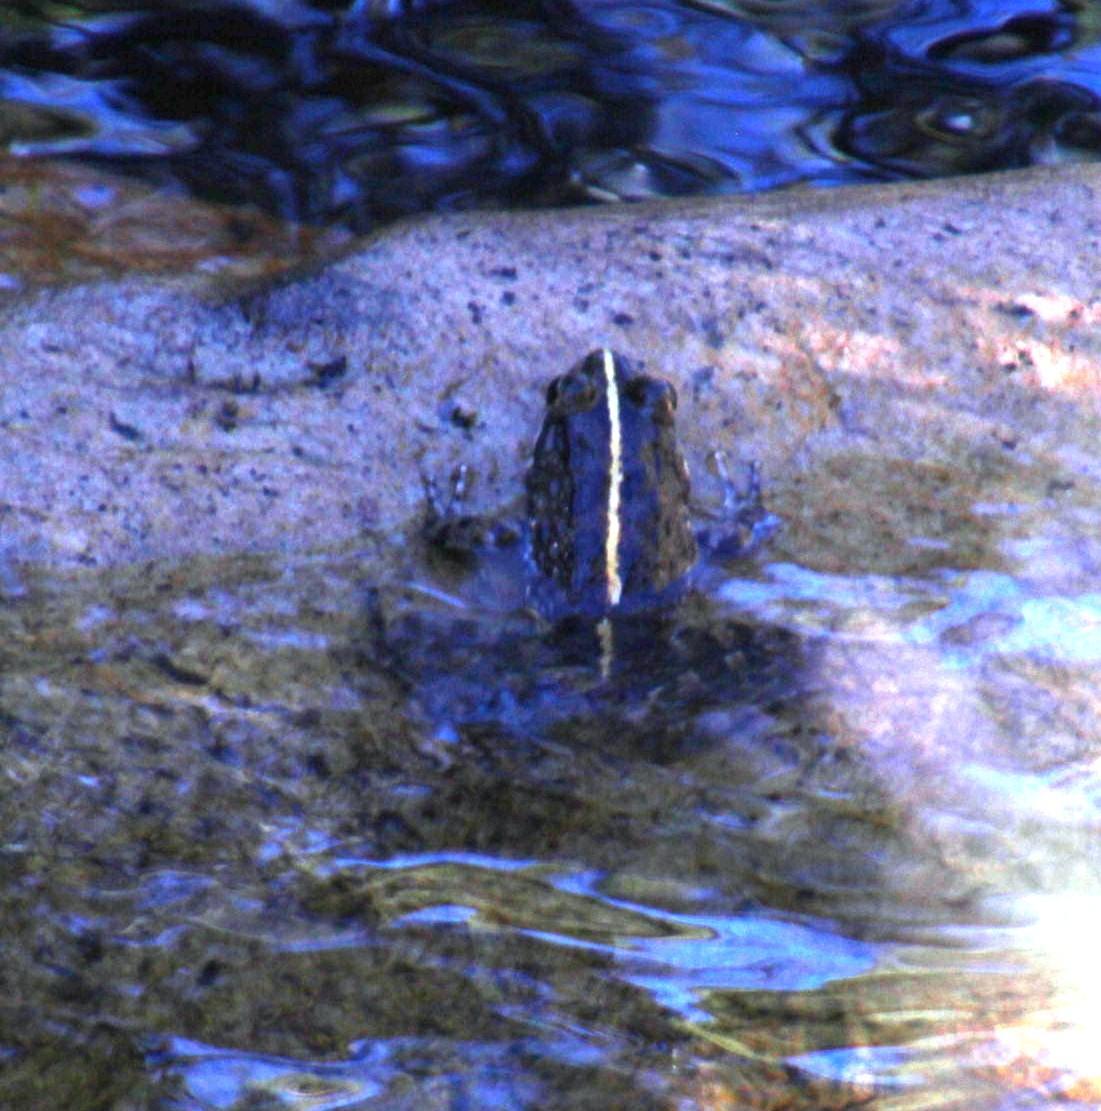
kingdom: Animalia
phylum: Chordata
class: Amphibia
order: Anura
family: Pyxicephalidae
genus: Amietia
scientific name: Amietia fuscigula
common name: Cape rana
